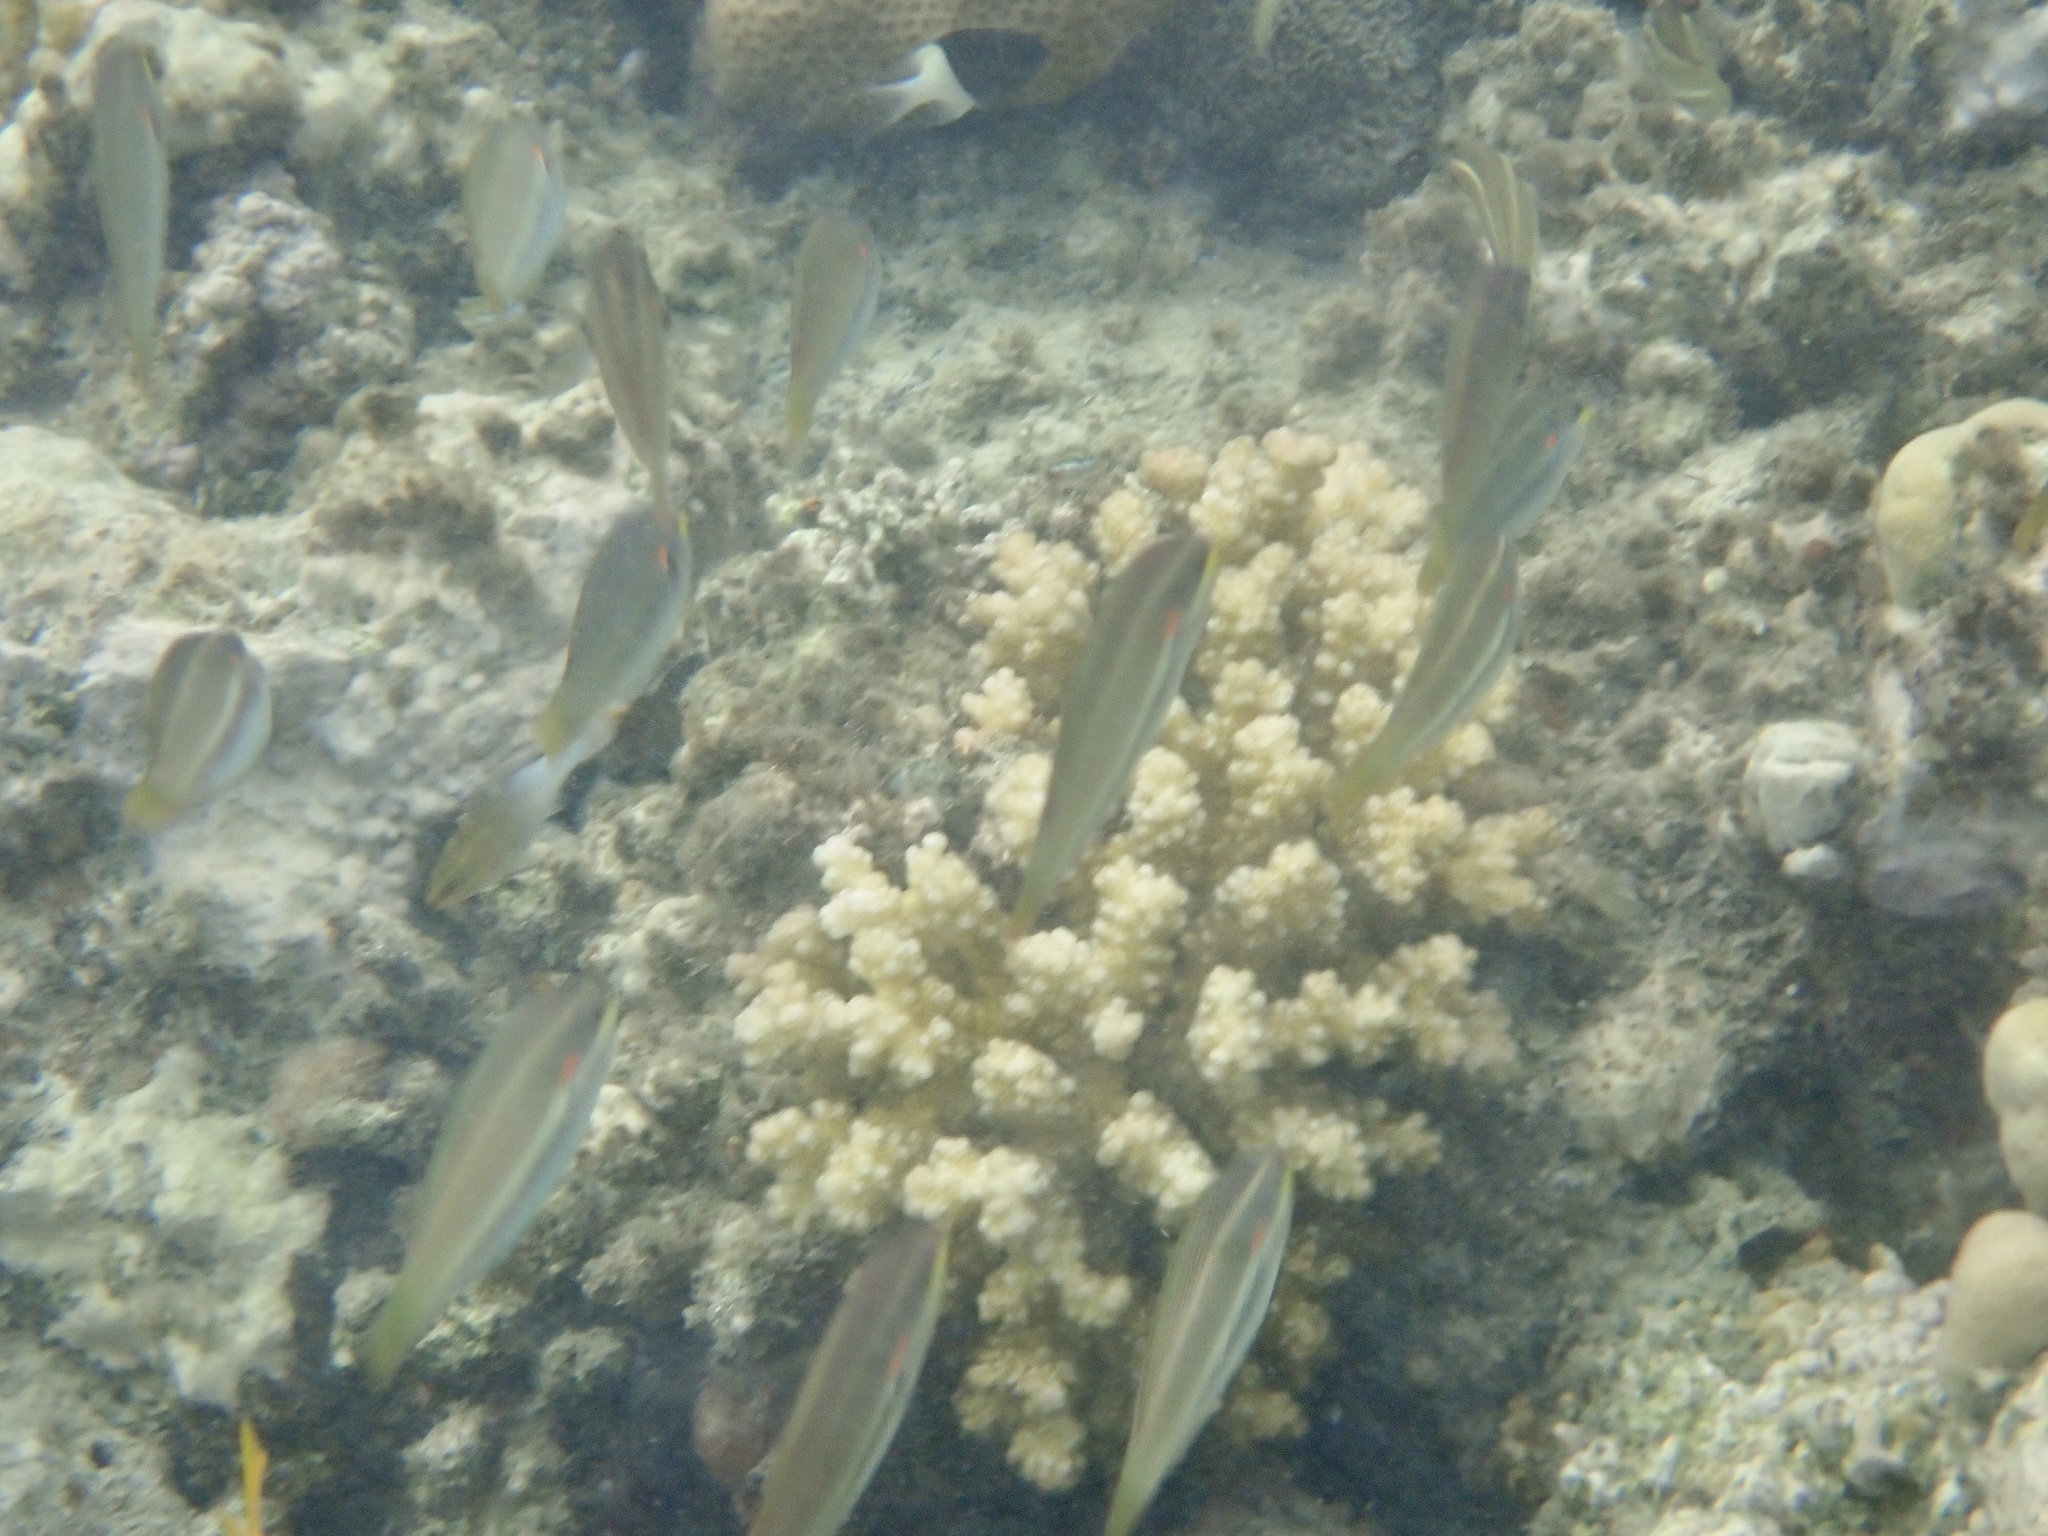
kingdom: Animalia
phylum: Chordata
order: Perciformes
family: Labridae
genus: Stethojulis
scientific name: Stethojulis albovittata
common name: Bluelined wrasse
